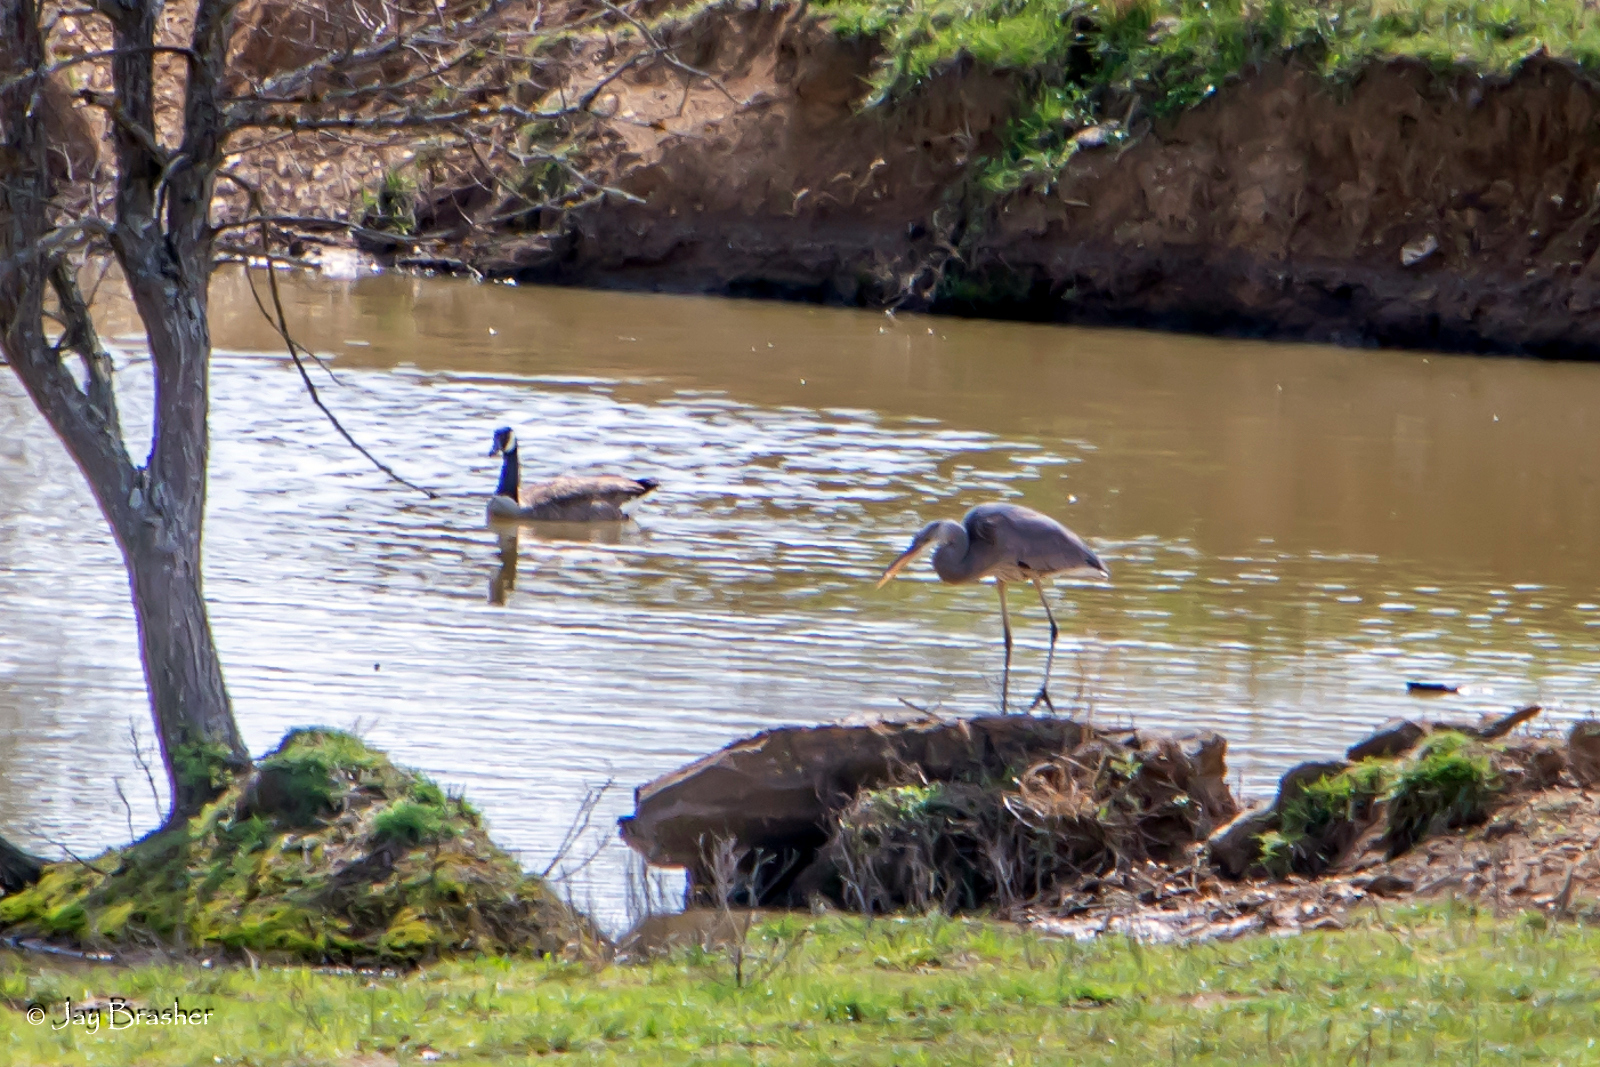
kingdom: Animalia
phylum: Chordata
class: Aves
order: Anseriformes
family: Anatidae
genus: Branta
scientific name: Branta canadensis
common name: Canada goose
